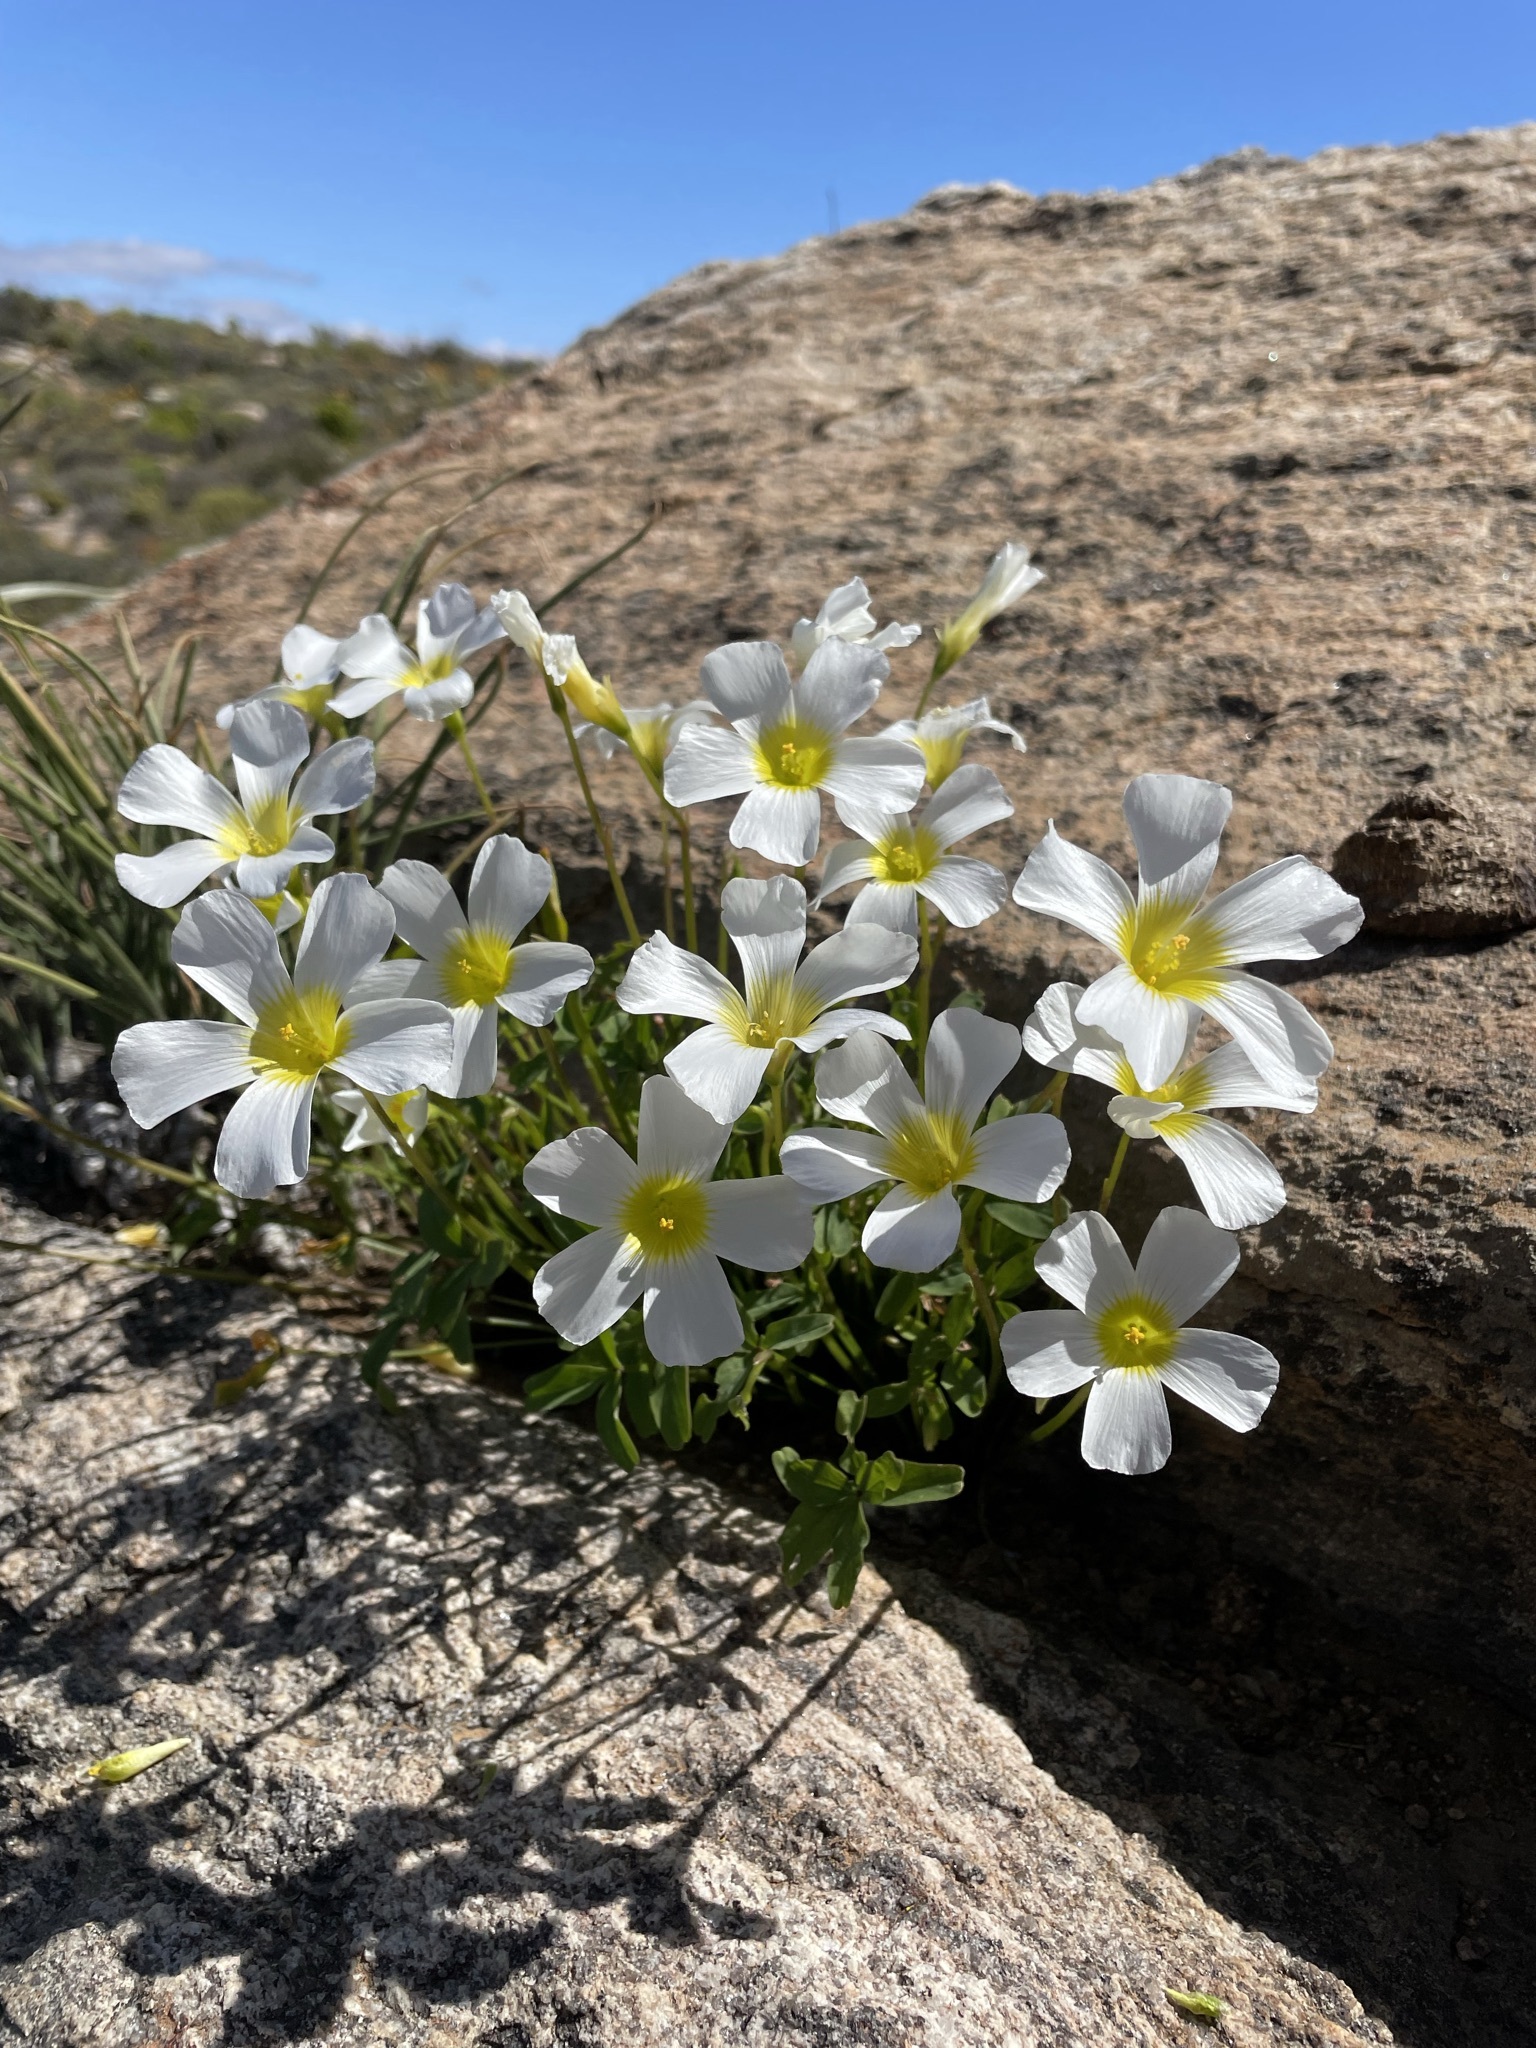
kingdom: Plantae
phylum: Tracheophyta
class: Magnoliopsida
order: Oxalidales
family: Oxalidaceae
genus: Oxalis
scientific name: Oxalis obtusa
